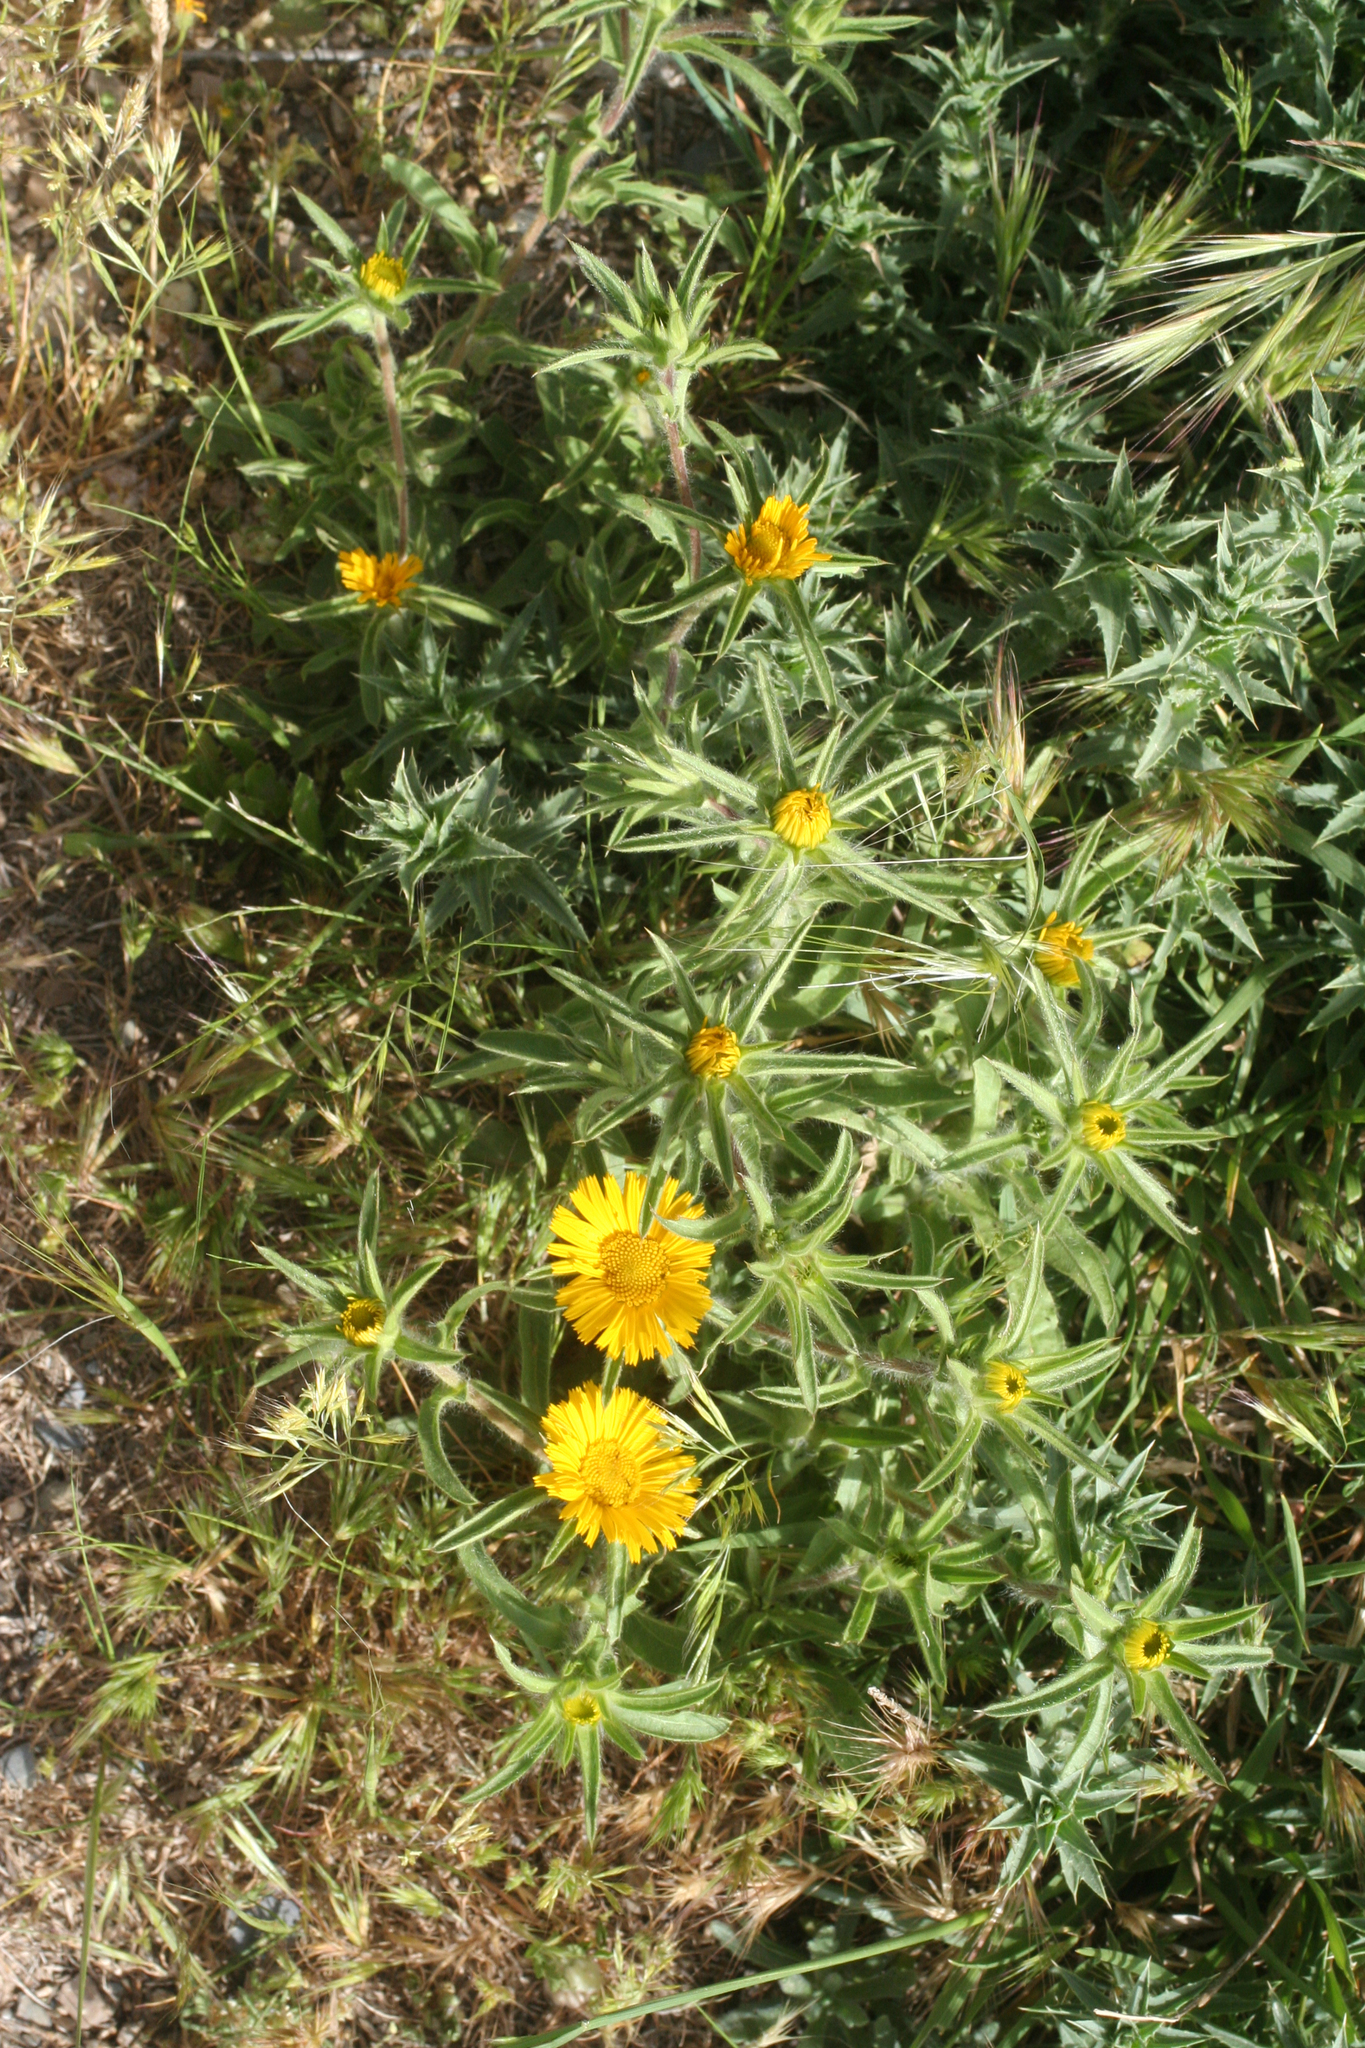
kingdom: Plantae
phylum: Tracheophyta
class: Magnoliopsida
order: Asterales
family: Asteraceae
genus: Pallenis
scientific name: Pallenis spinosa
